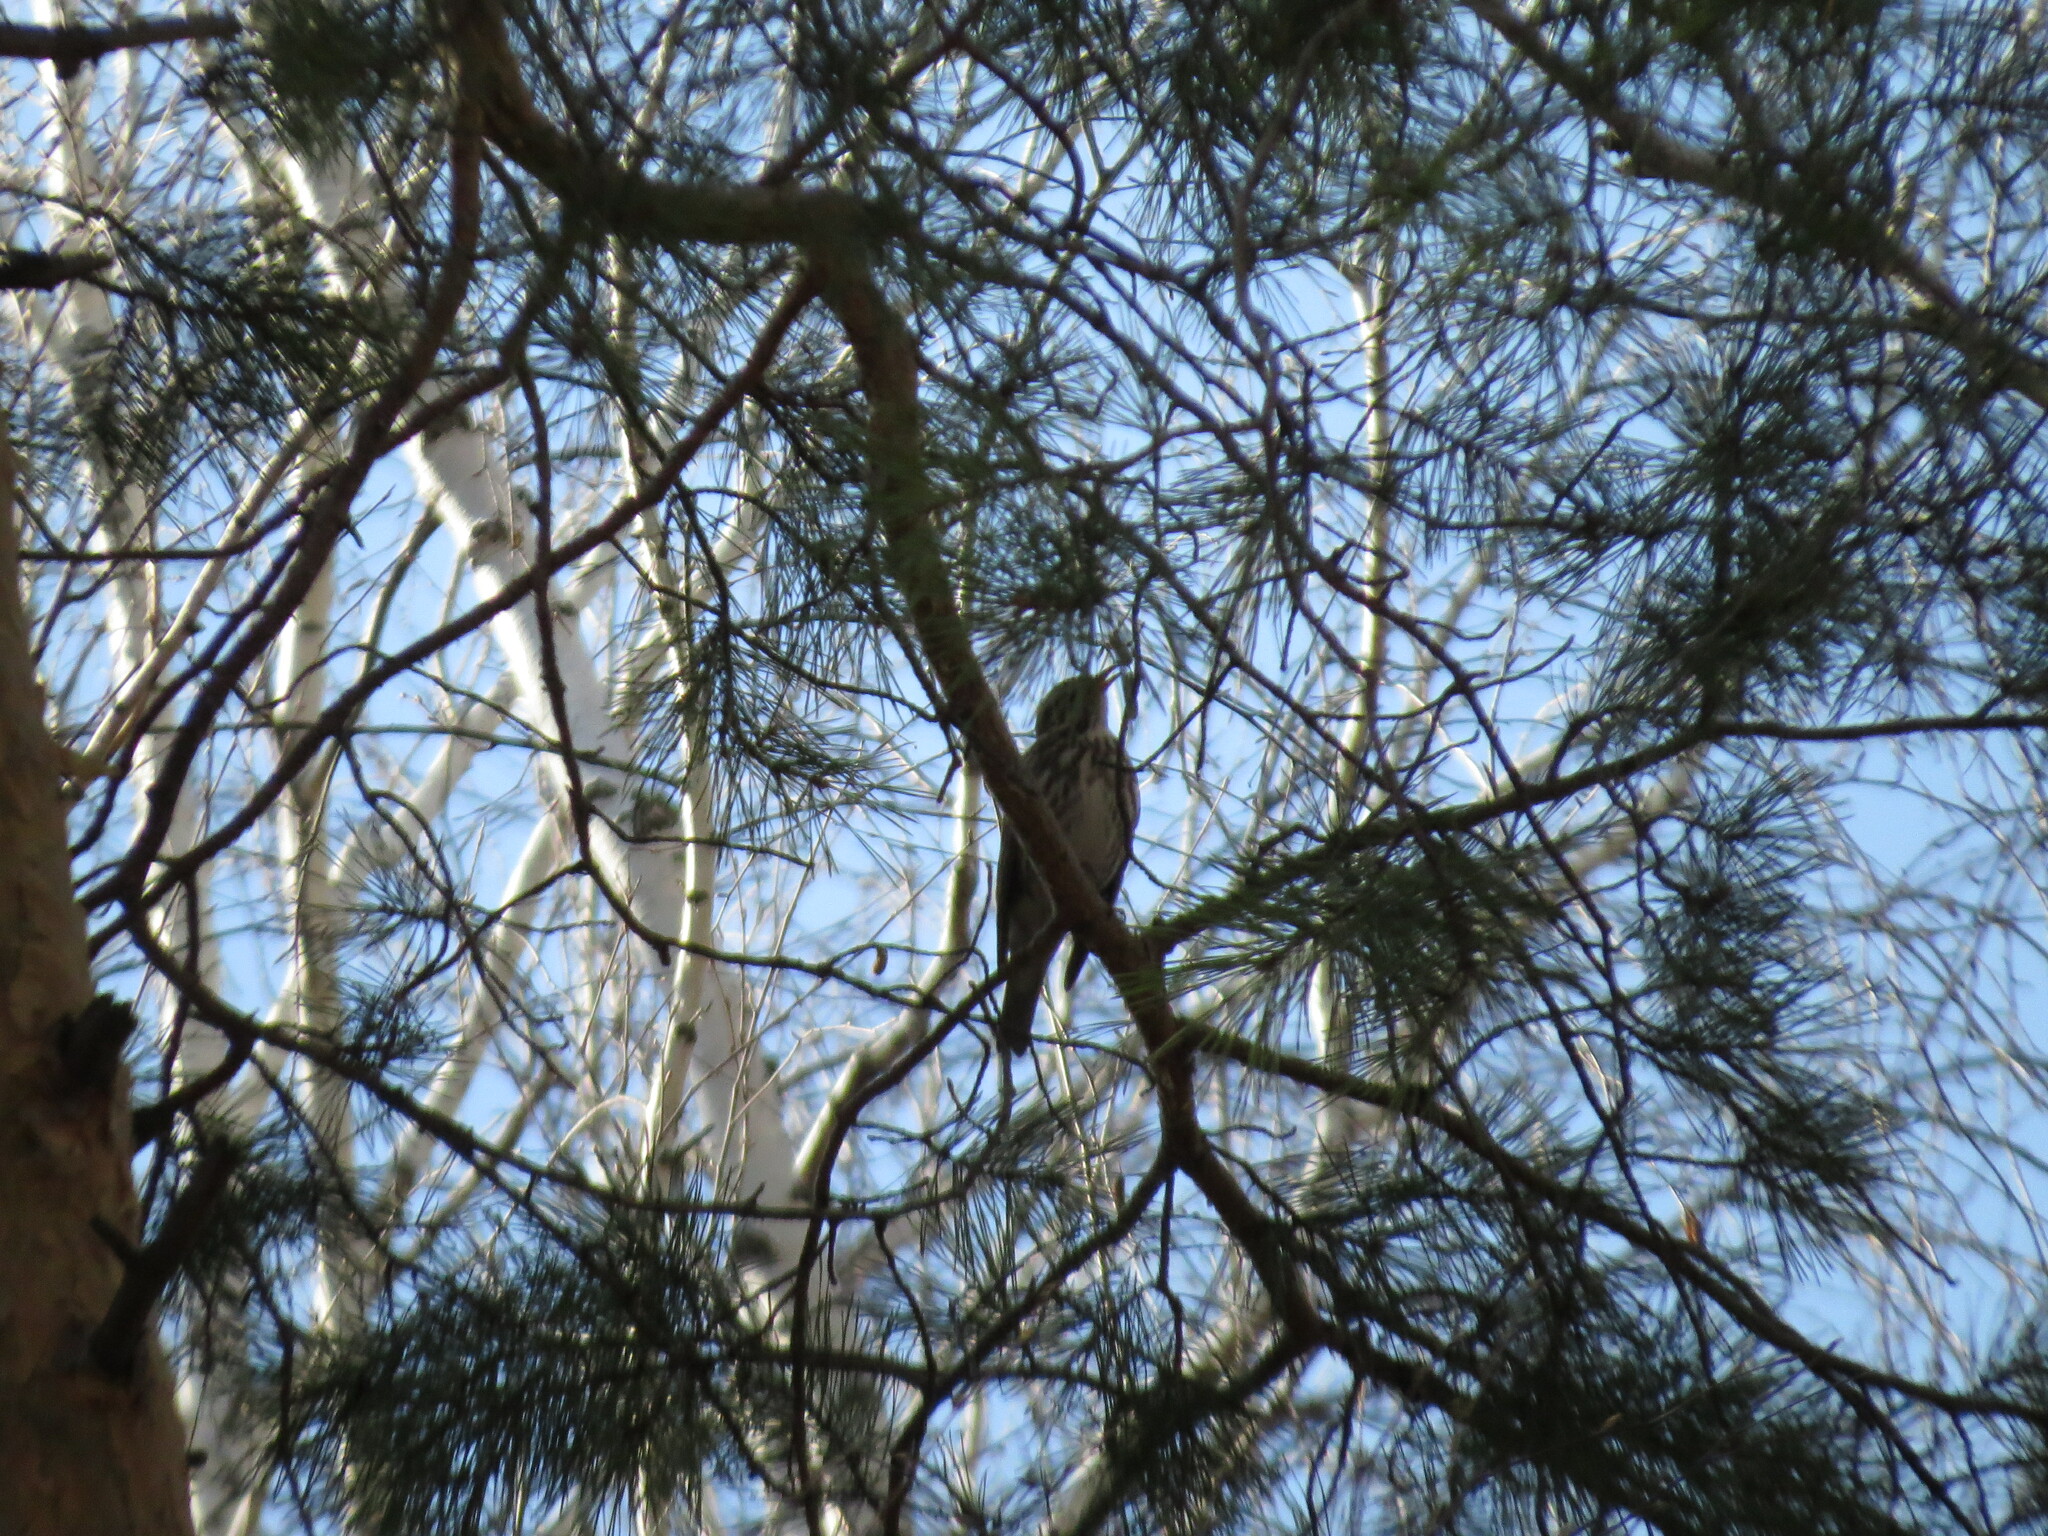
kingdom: Animalia
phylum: Chordata
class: Aves
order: Passeriformes
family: Turdidae
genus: Turdus
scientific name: Turdus iliacus
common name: Redwing
